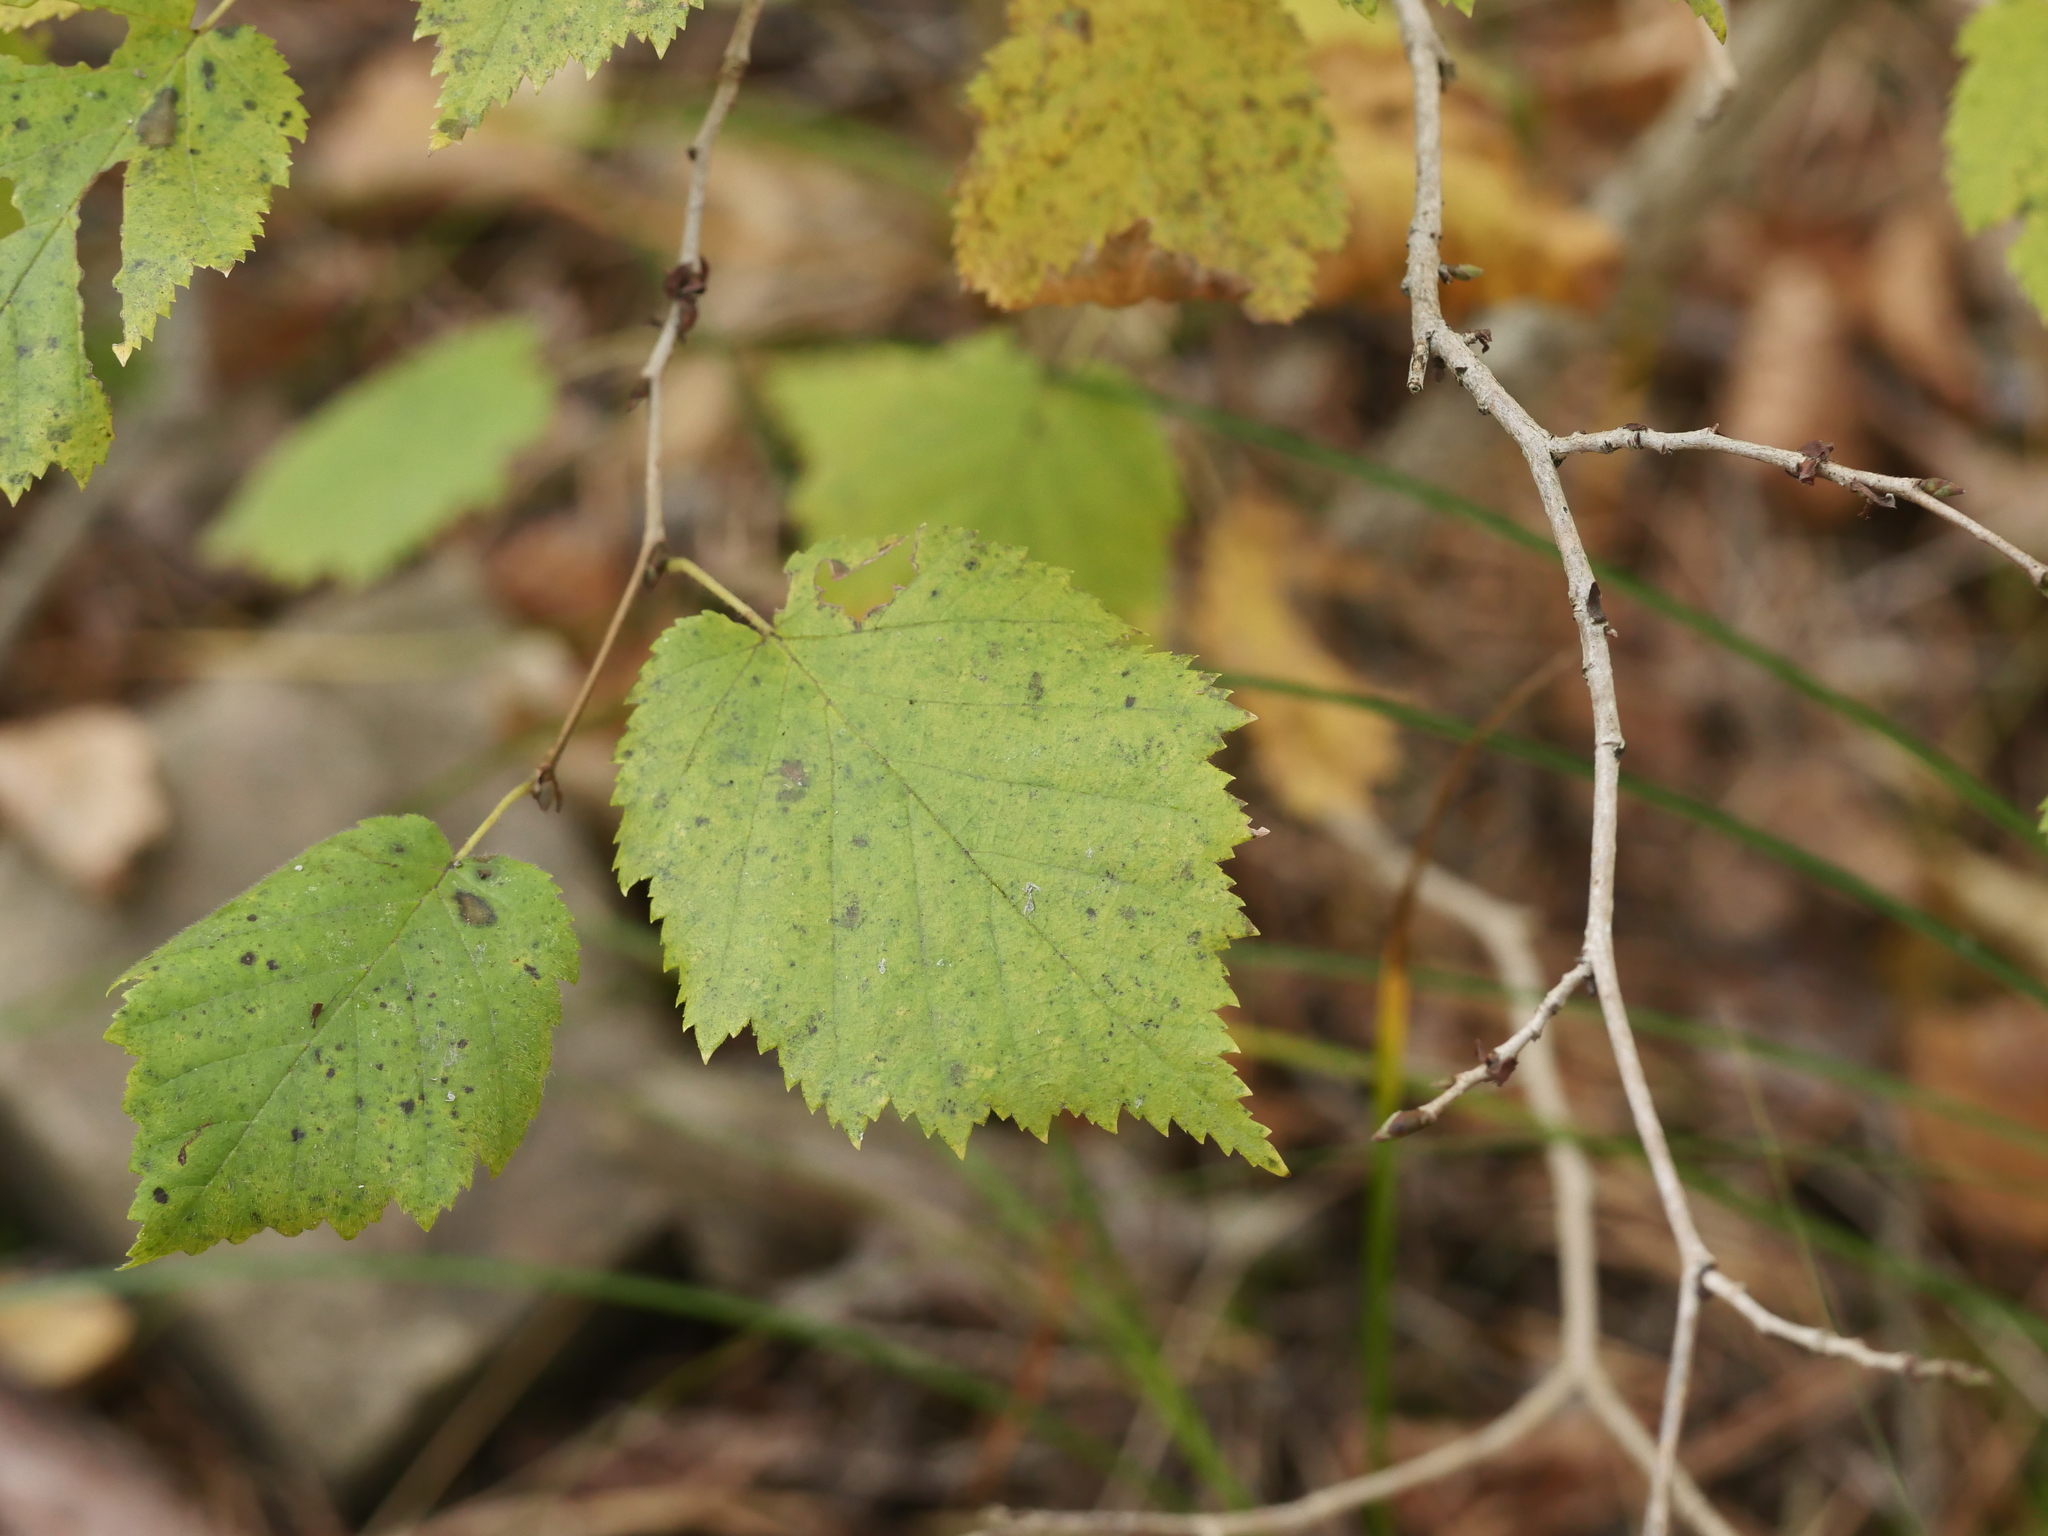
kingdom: Plantae
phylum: Tracheophyta
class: Magnoliopsida
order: Fagales
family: Betulaceae
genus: Corylus
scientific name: Corylus avellana
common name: European hazel
